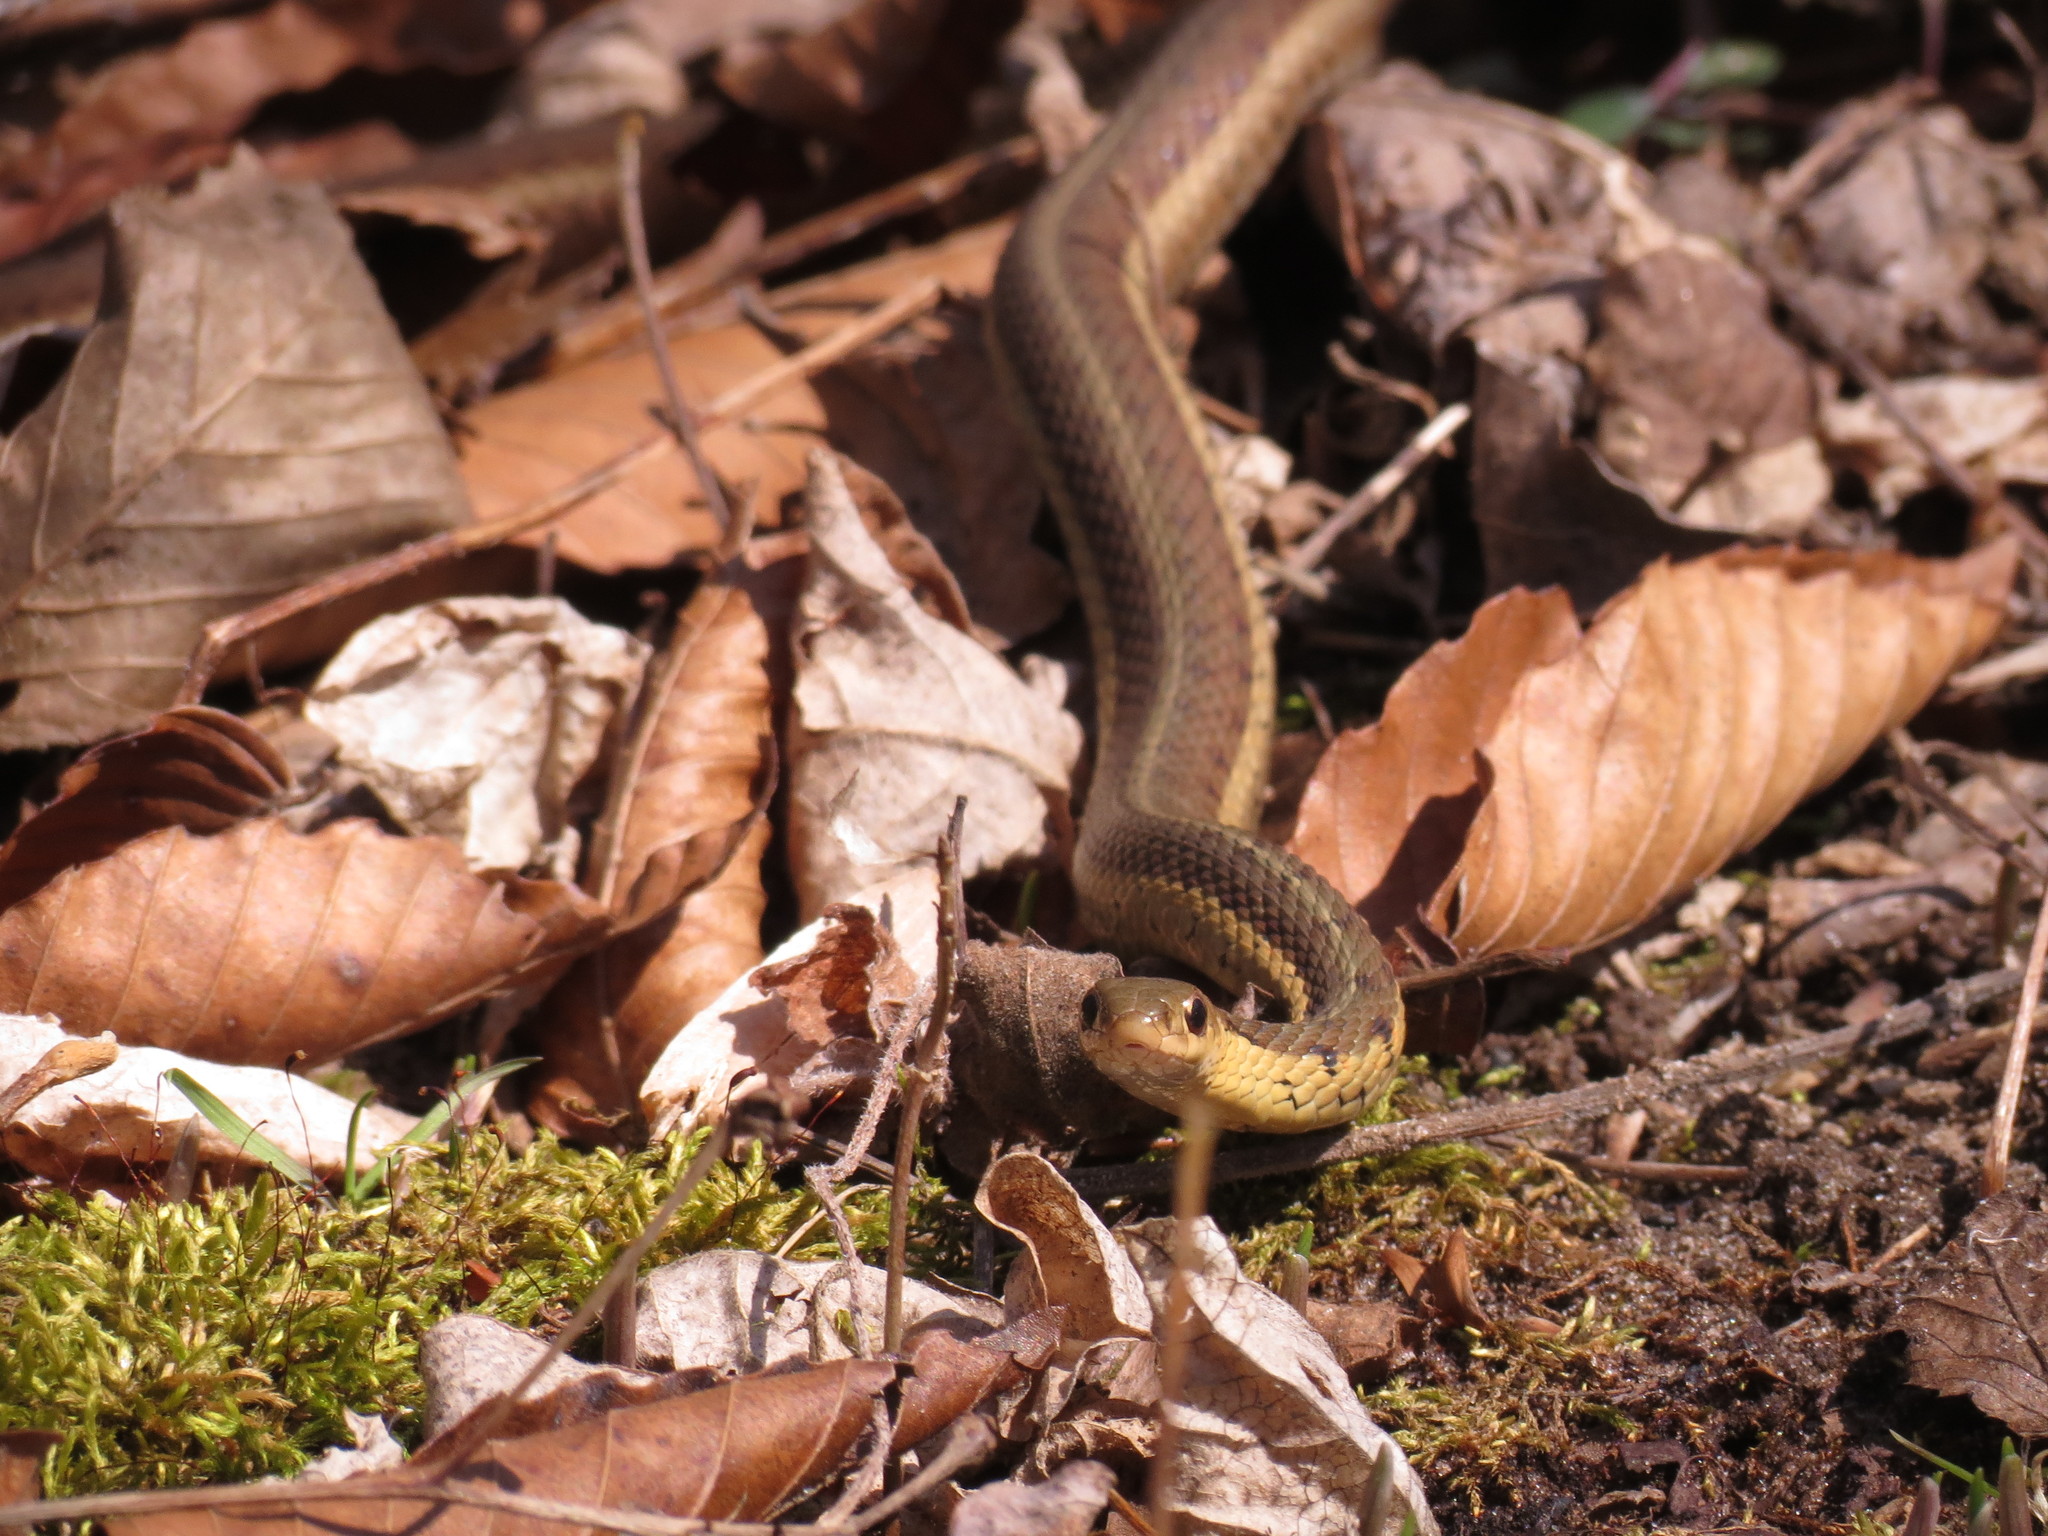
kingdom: Animalia
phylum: Chordata
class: Squamata
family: Colubridae
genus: Thamnophis
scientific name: Thamnophis sirtalis
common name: Common garter snake
